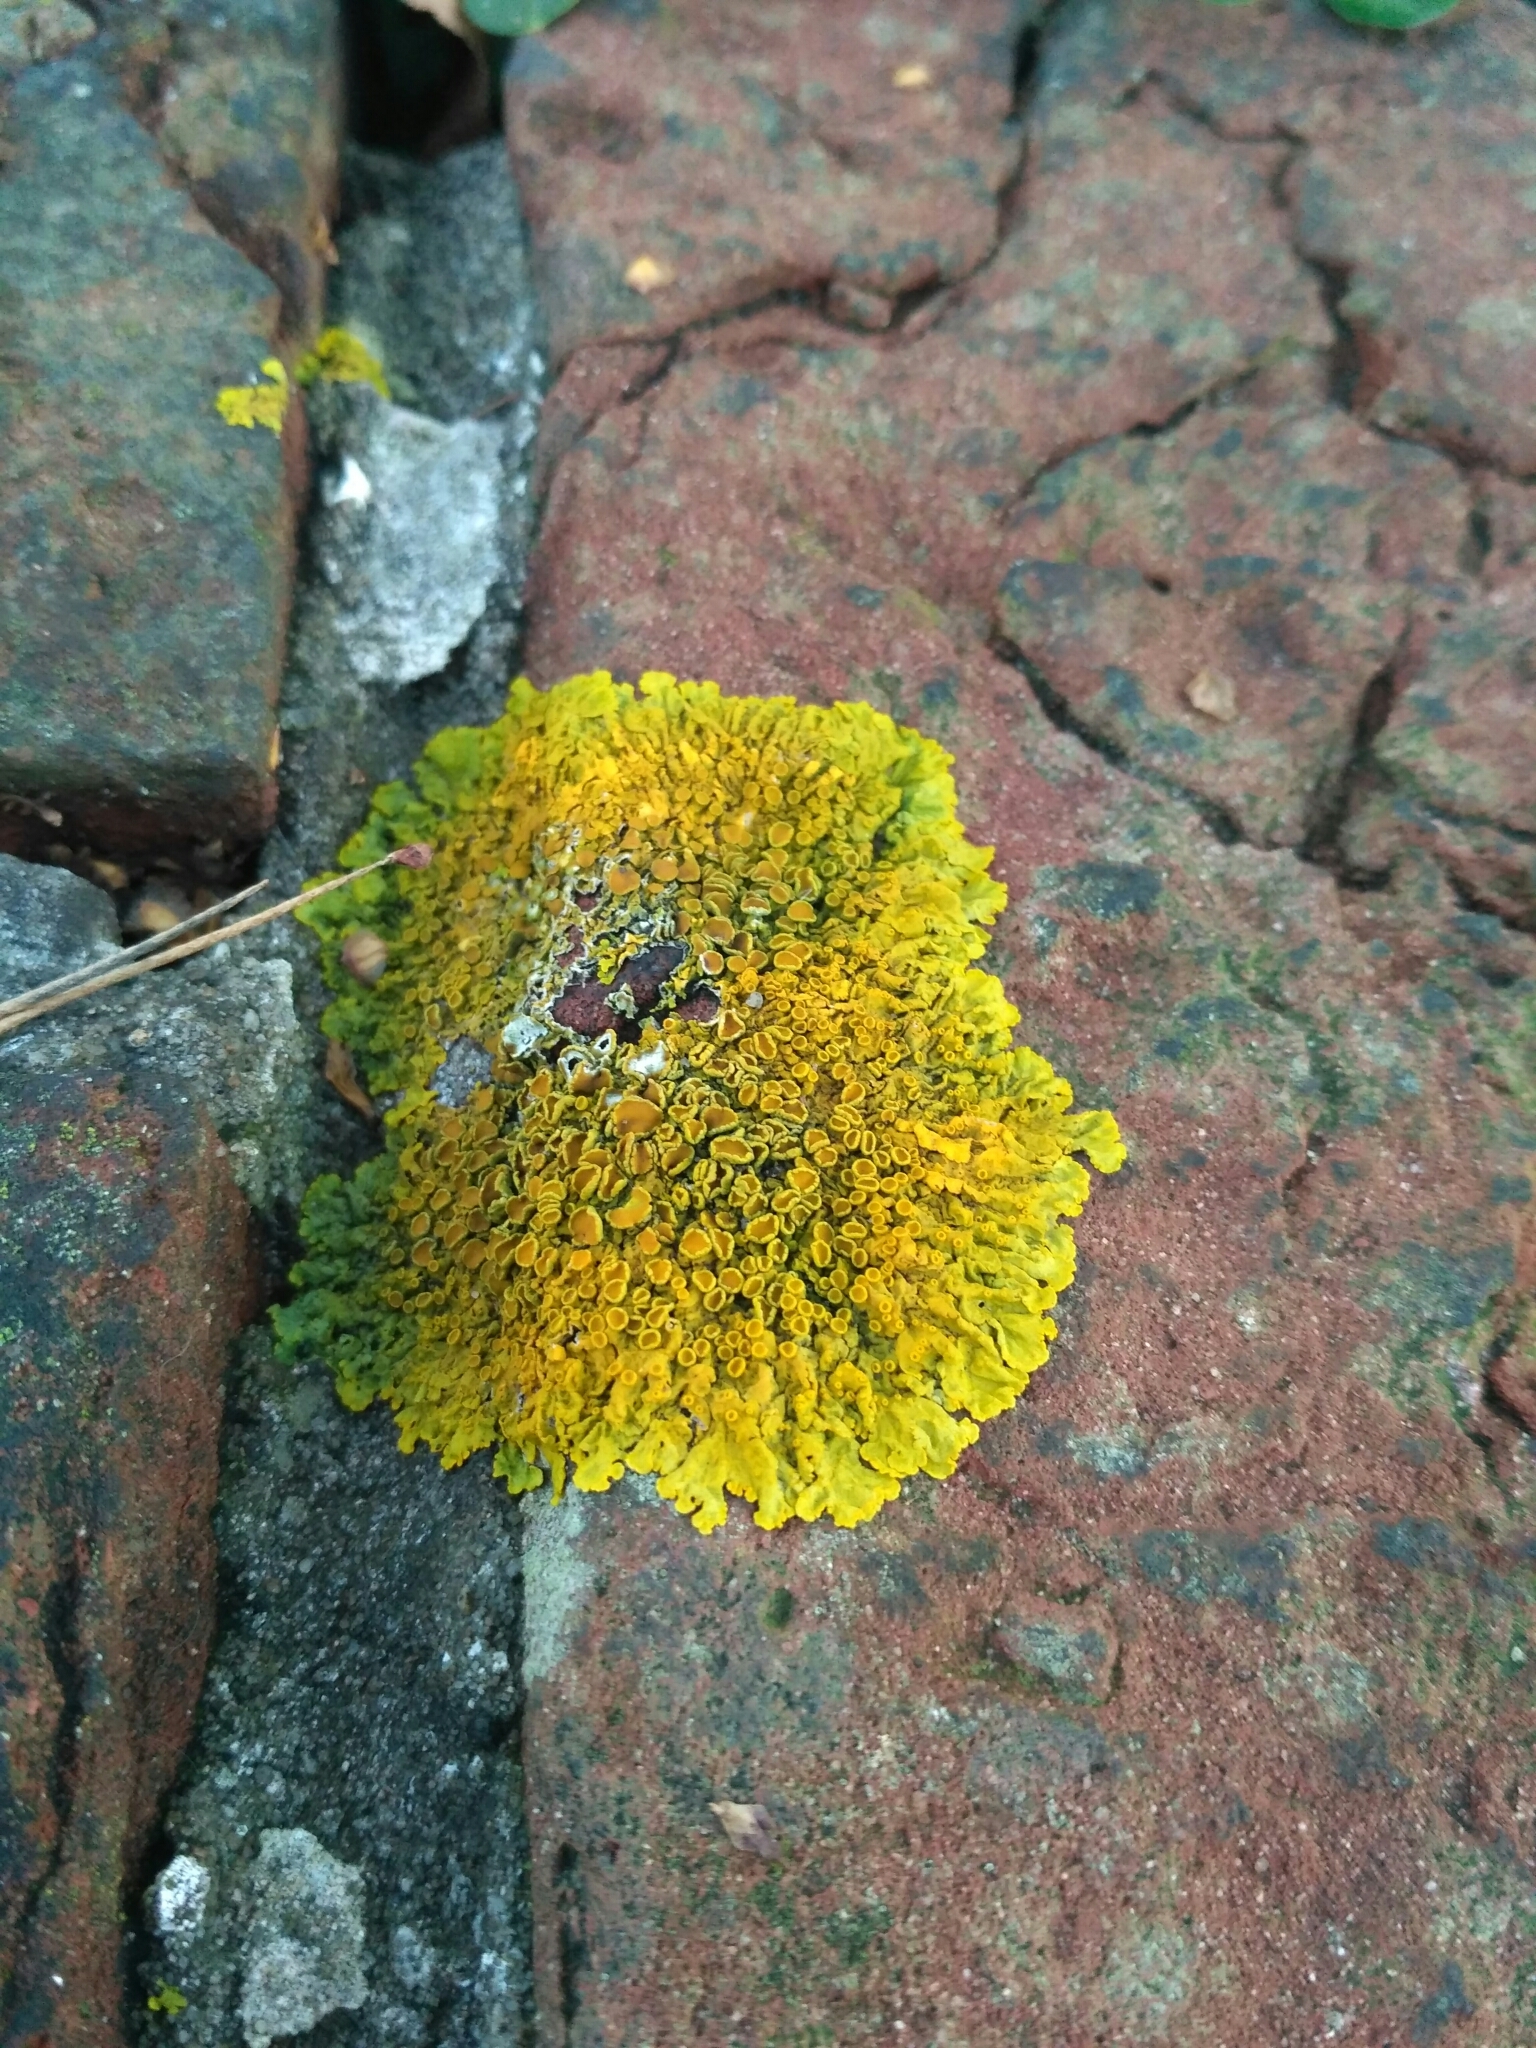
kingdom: Fungi
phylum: Ascomycota
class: Lecanoromycetes
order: Teloschistales
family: Teloschistaceae
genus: Xanthoria
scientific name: Xanthoria parietina
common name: Common orange lichen
